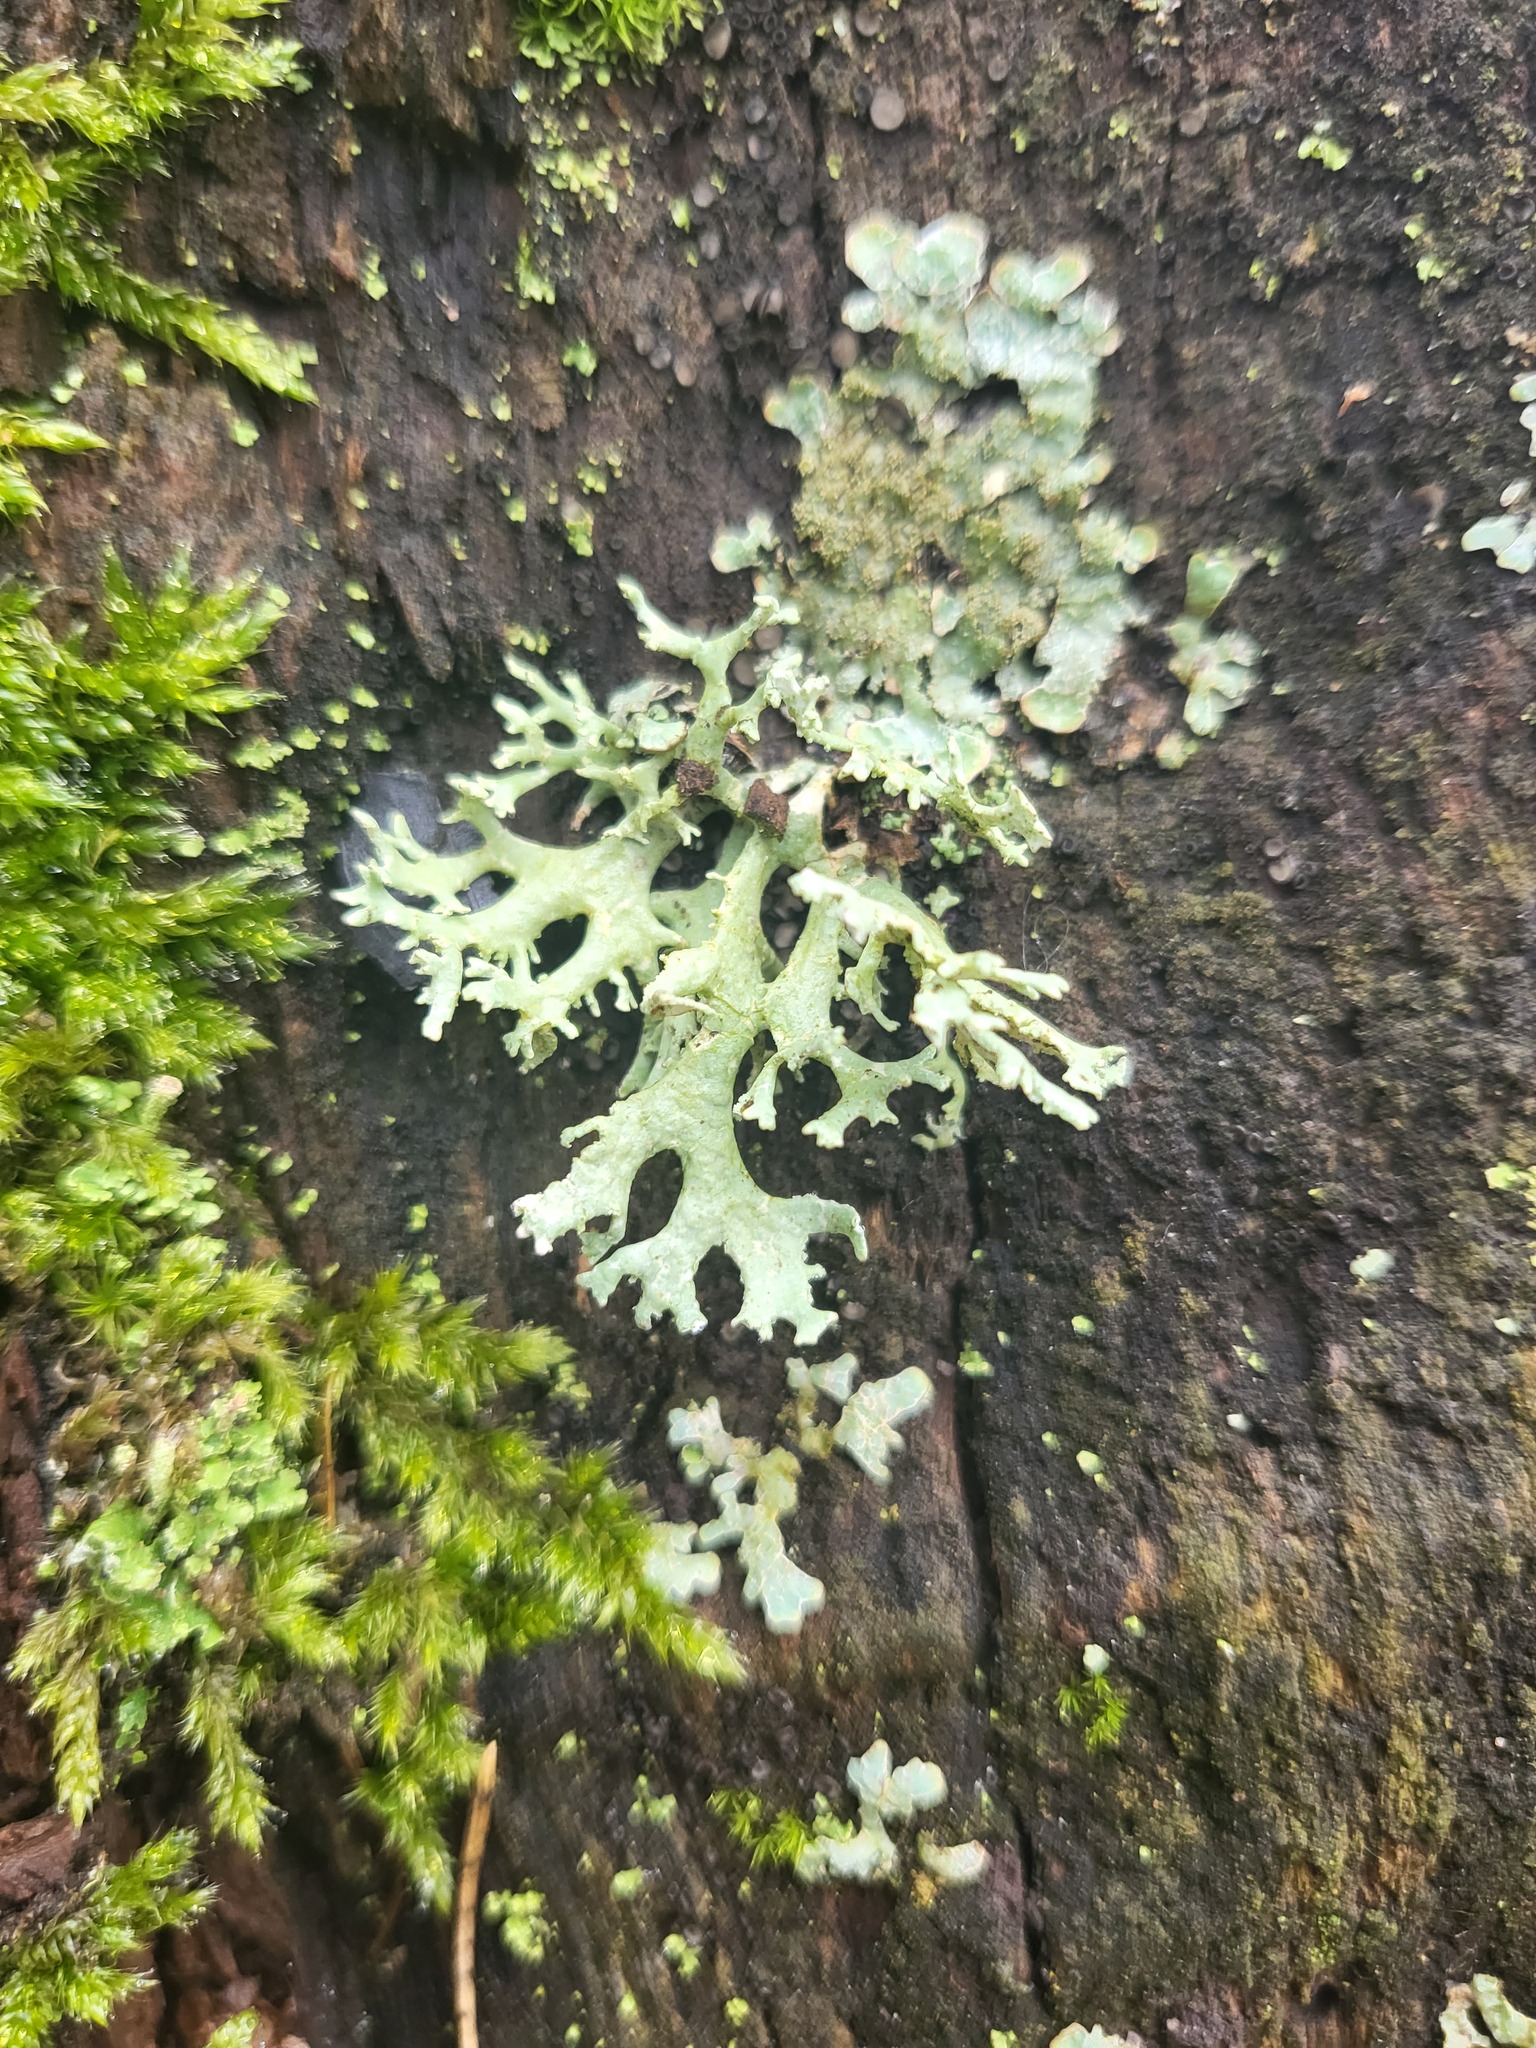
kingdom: Fungi
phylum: Ascomycota
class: Lecanoromycetes
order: Lecanorales
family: Parmeliaceae
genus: Evernia
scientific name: Evernia prunastri
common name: Oak moss
